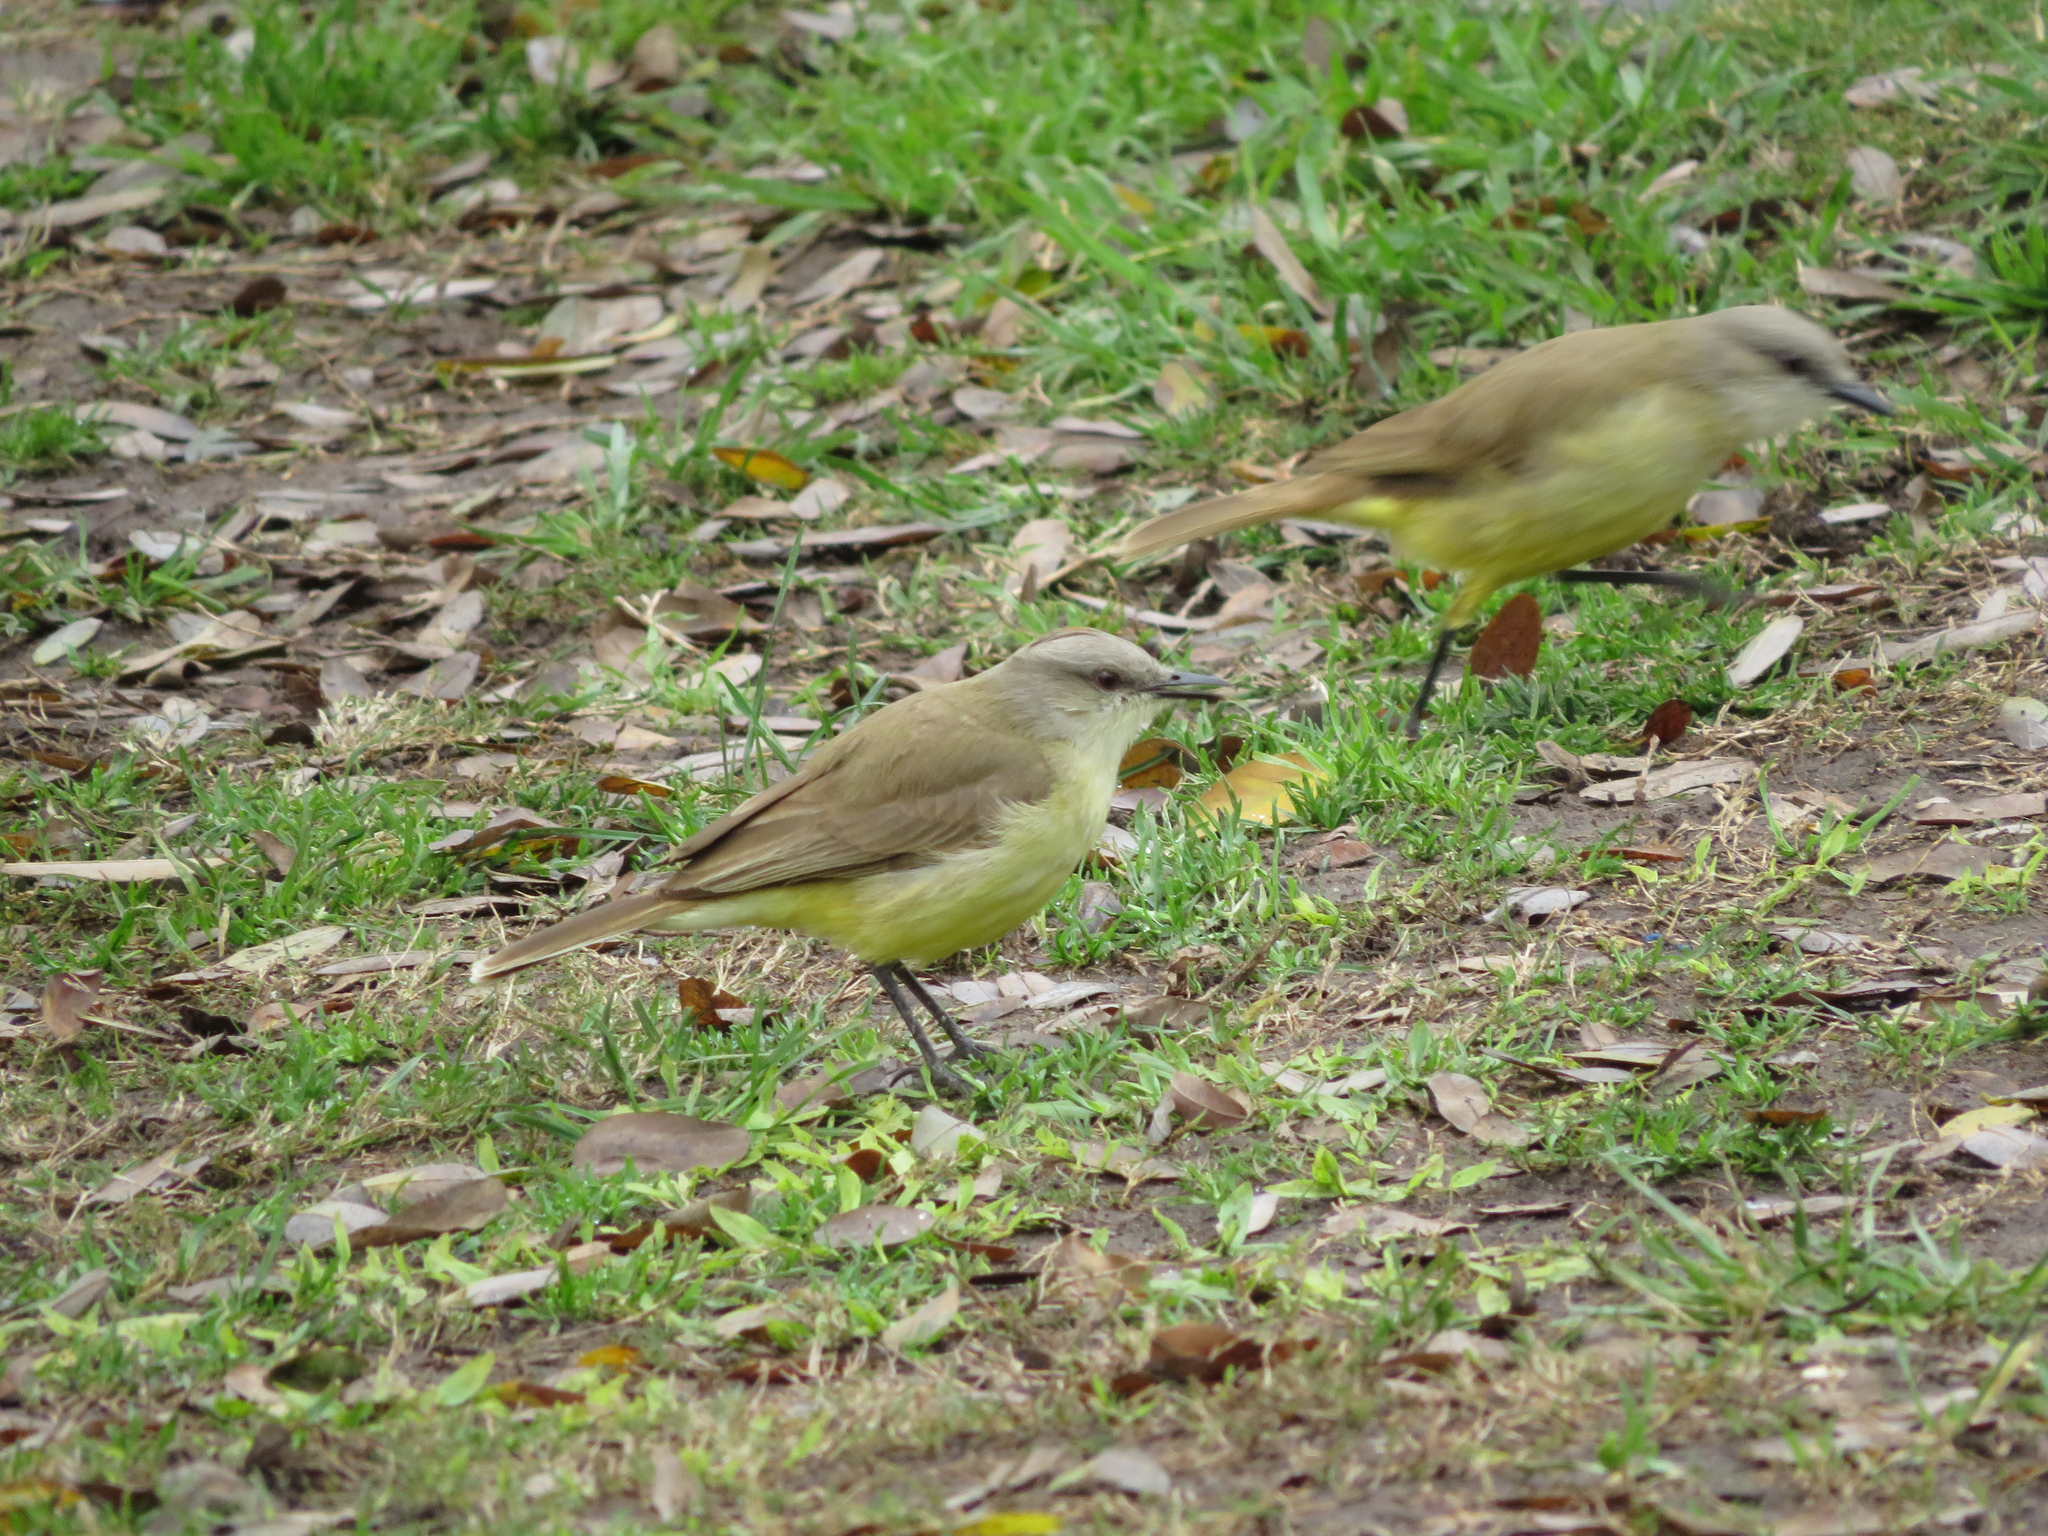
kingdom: Animalia
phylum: Chordata
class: Aves
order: Passeriformes
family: Tyrannidae
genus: Machetornis
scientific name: Machetornis rixosa
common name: Cattle tyrant
